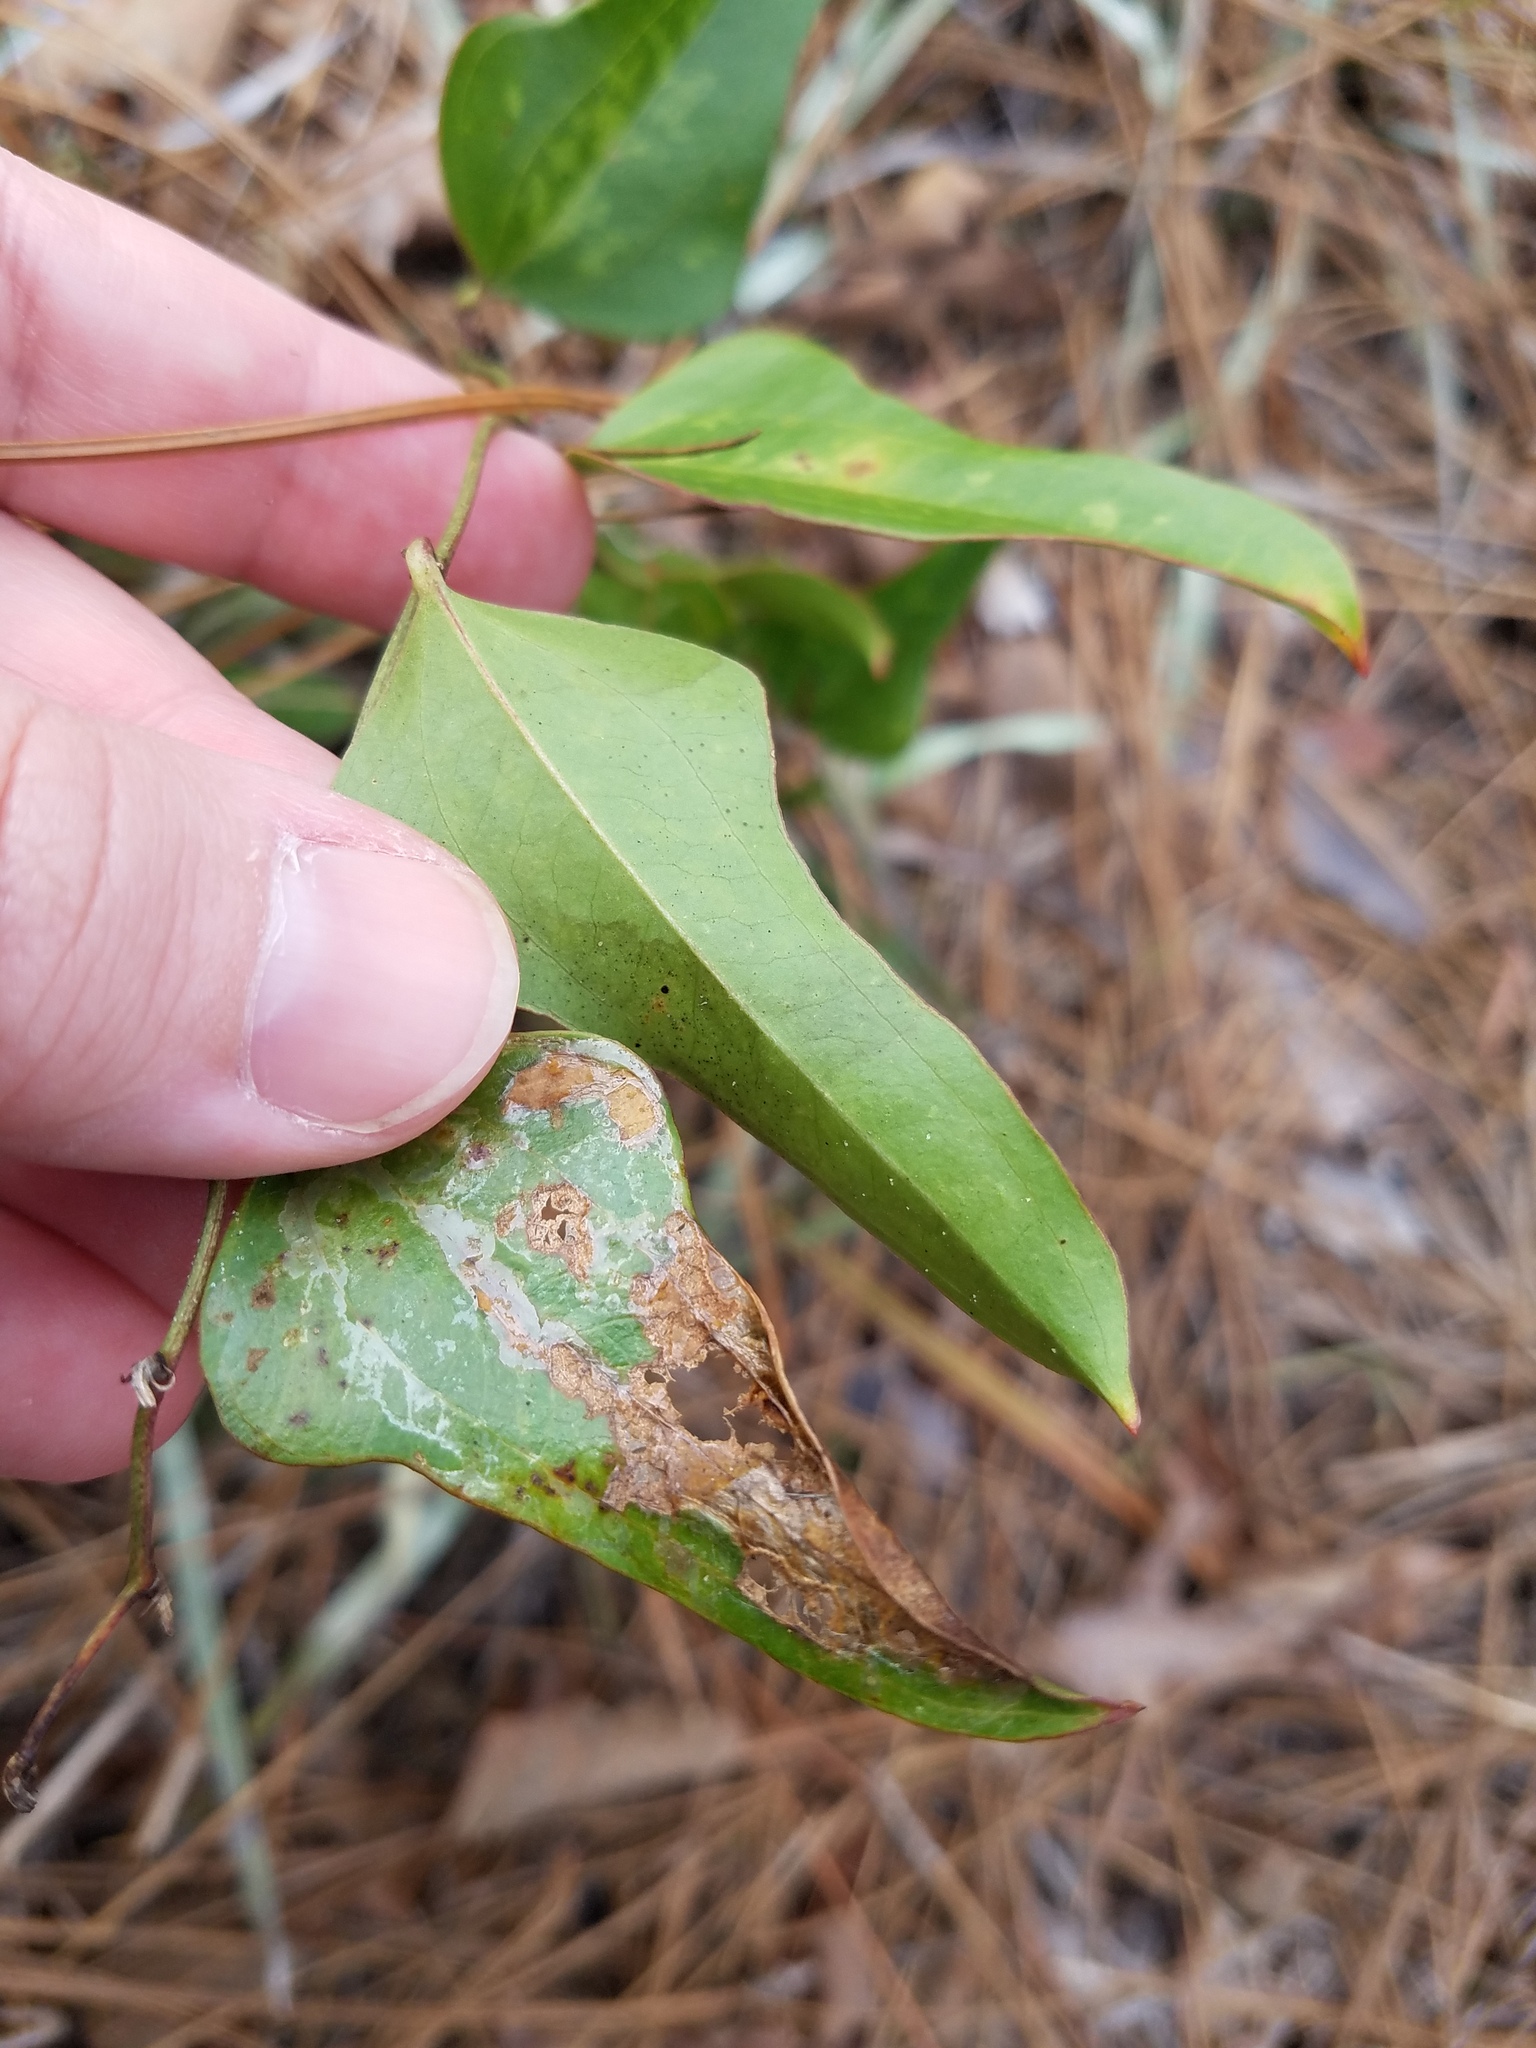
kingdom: Plantae
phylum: Tracheophyta
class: Liliopsida
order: Liliales
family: Smilacaceae
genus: Smilax
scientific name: Smilax auriculata
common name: Wild bamboo
